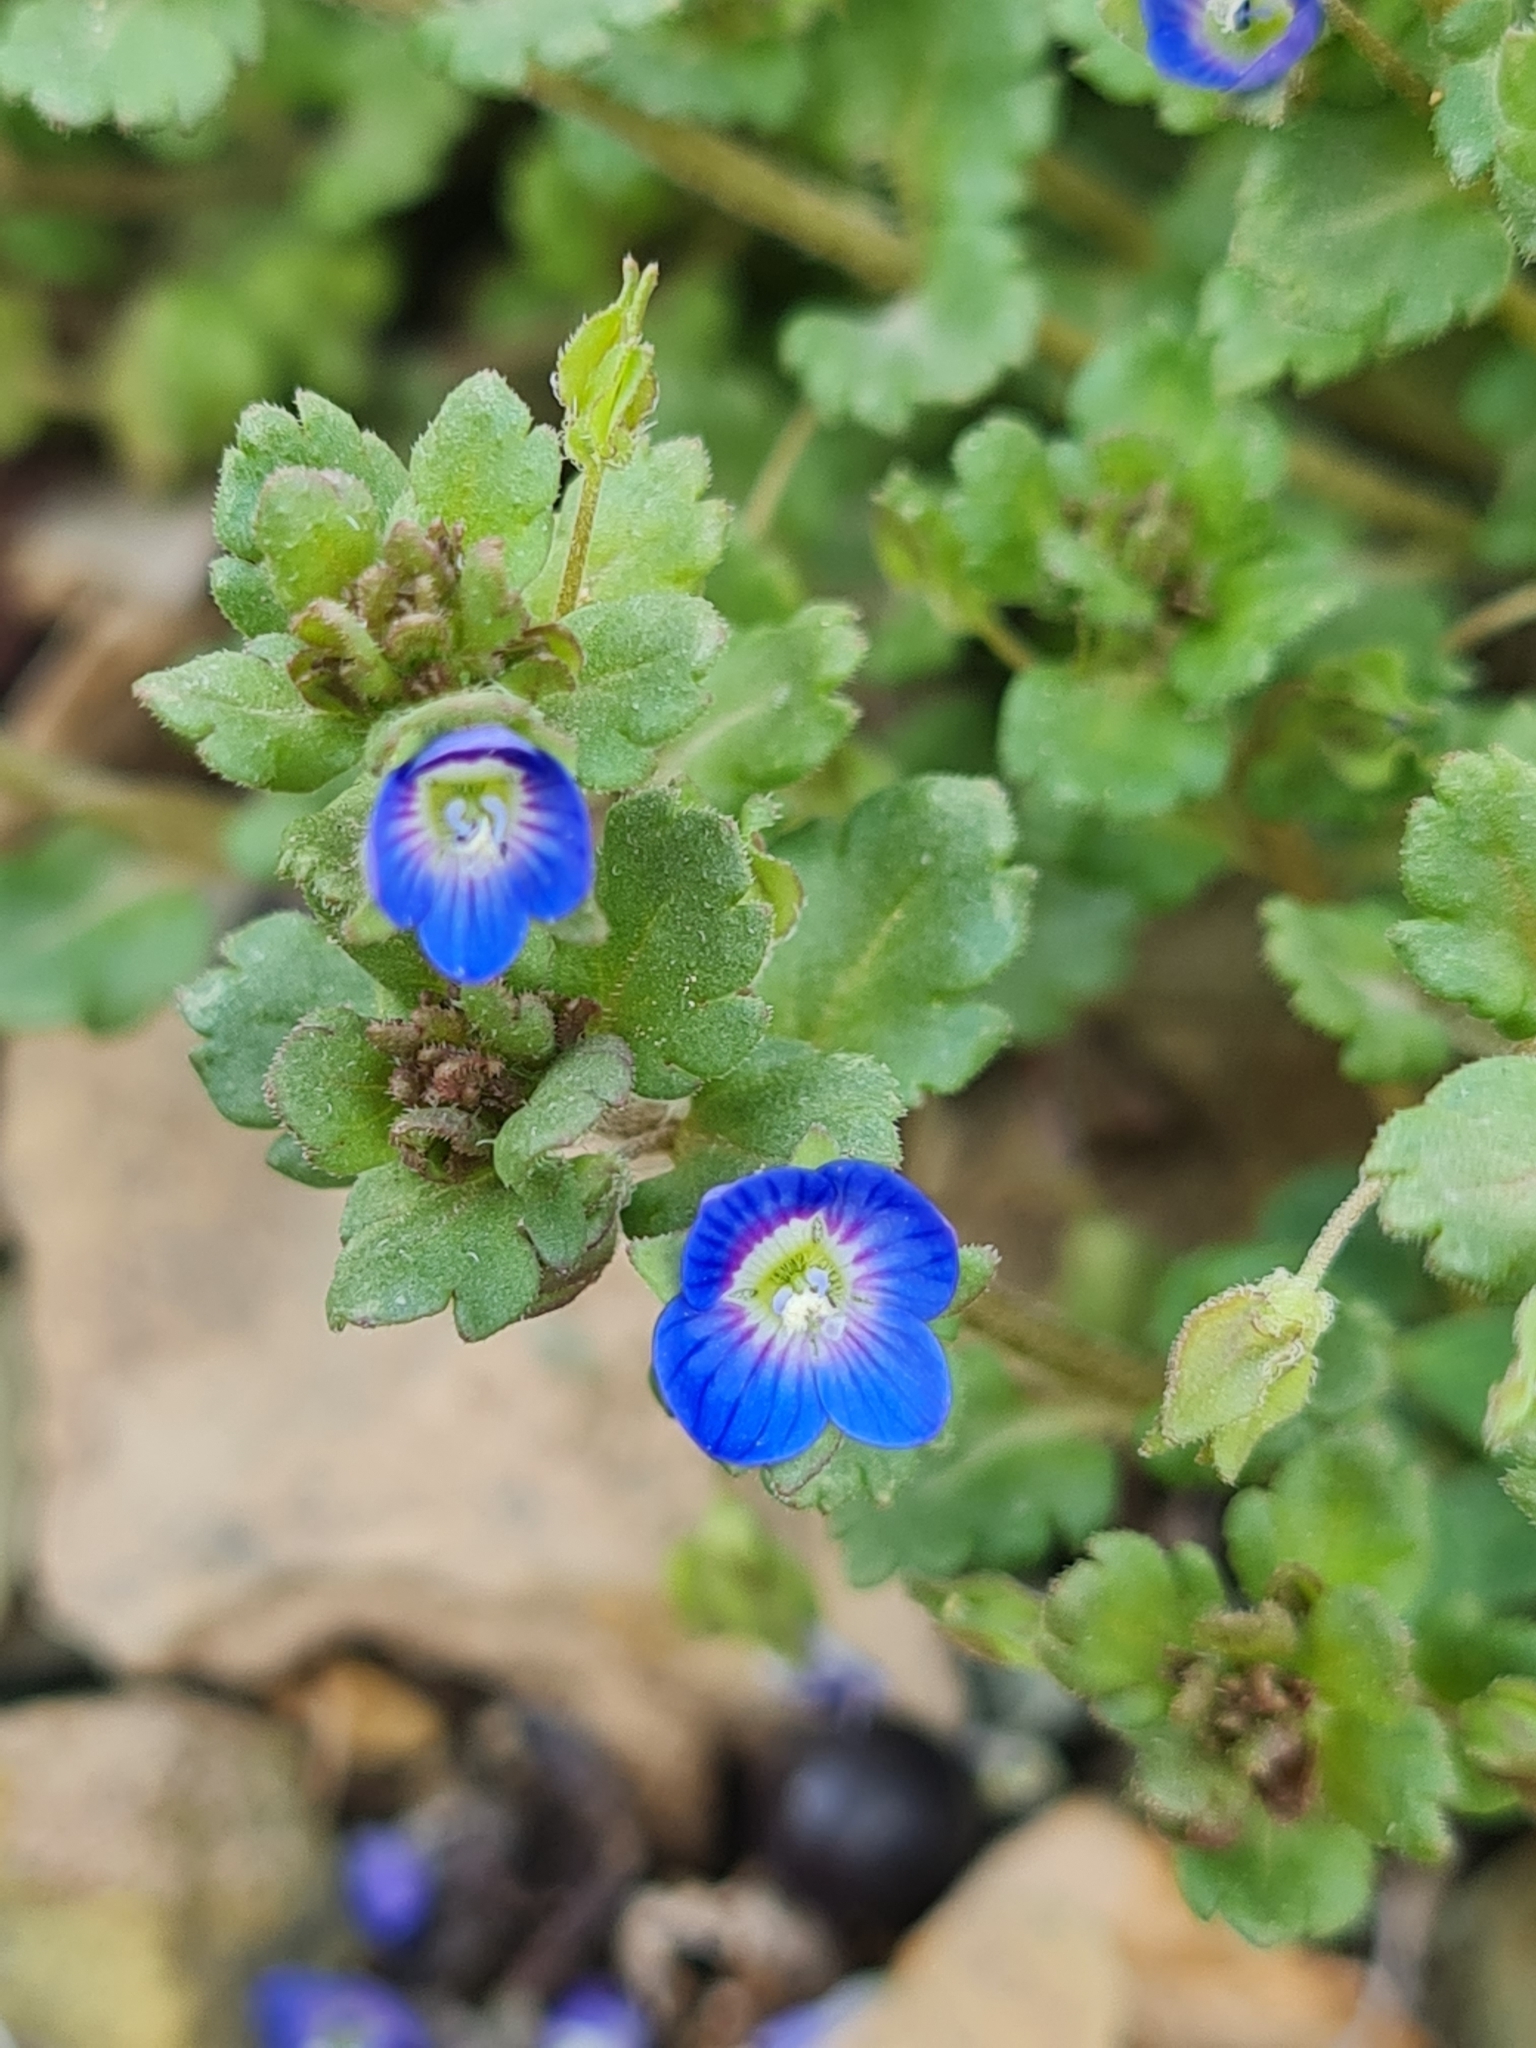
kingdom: Plantae
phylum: Tracheophyta
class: Magnoliopsida
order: Lamiales
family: Plantaginaceae
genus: Veronica
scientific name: Veronica persica
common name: Common field-speedwell
